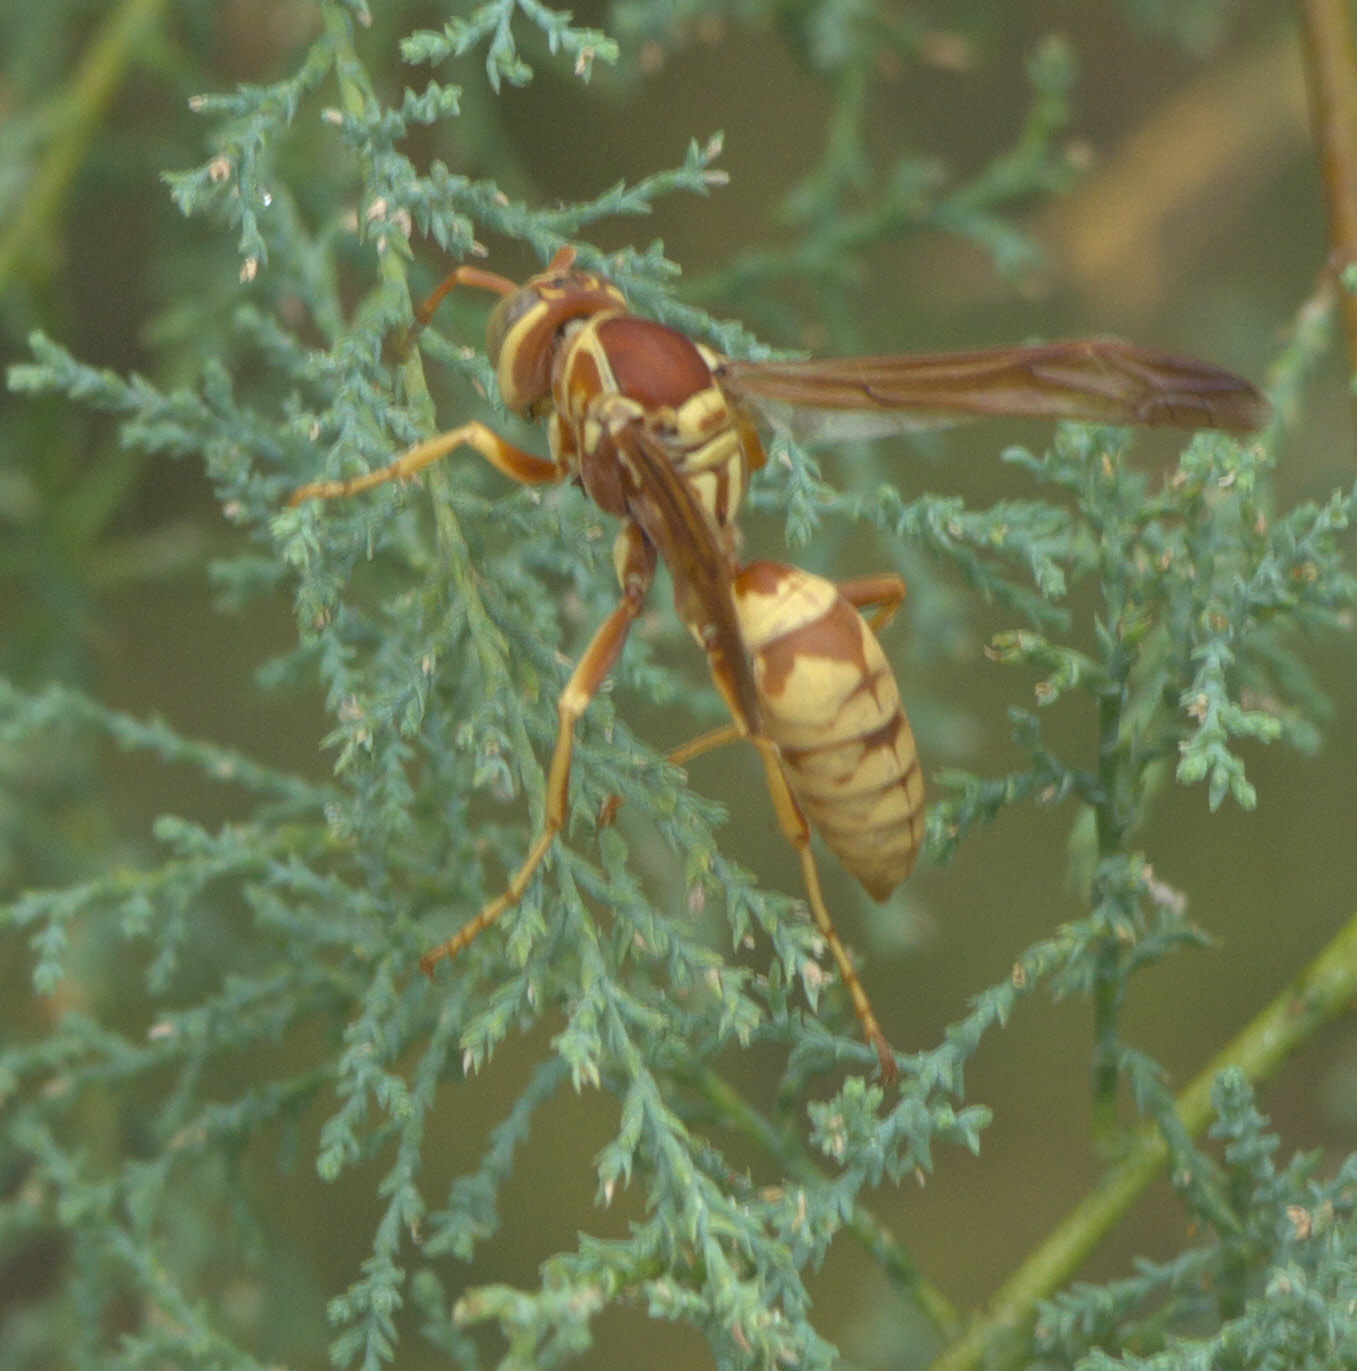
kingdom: Animalia
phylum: Arthropoda
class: Insecta
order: Hymenoptera
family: Eumenidae
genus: Polistes
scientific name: Polistes aurifer
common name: Paper wasp
